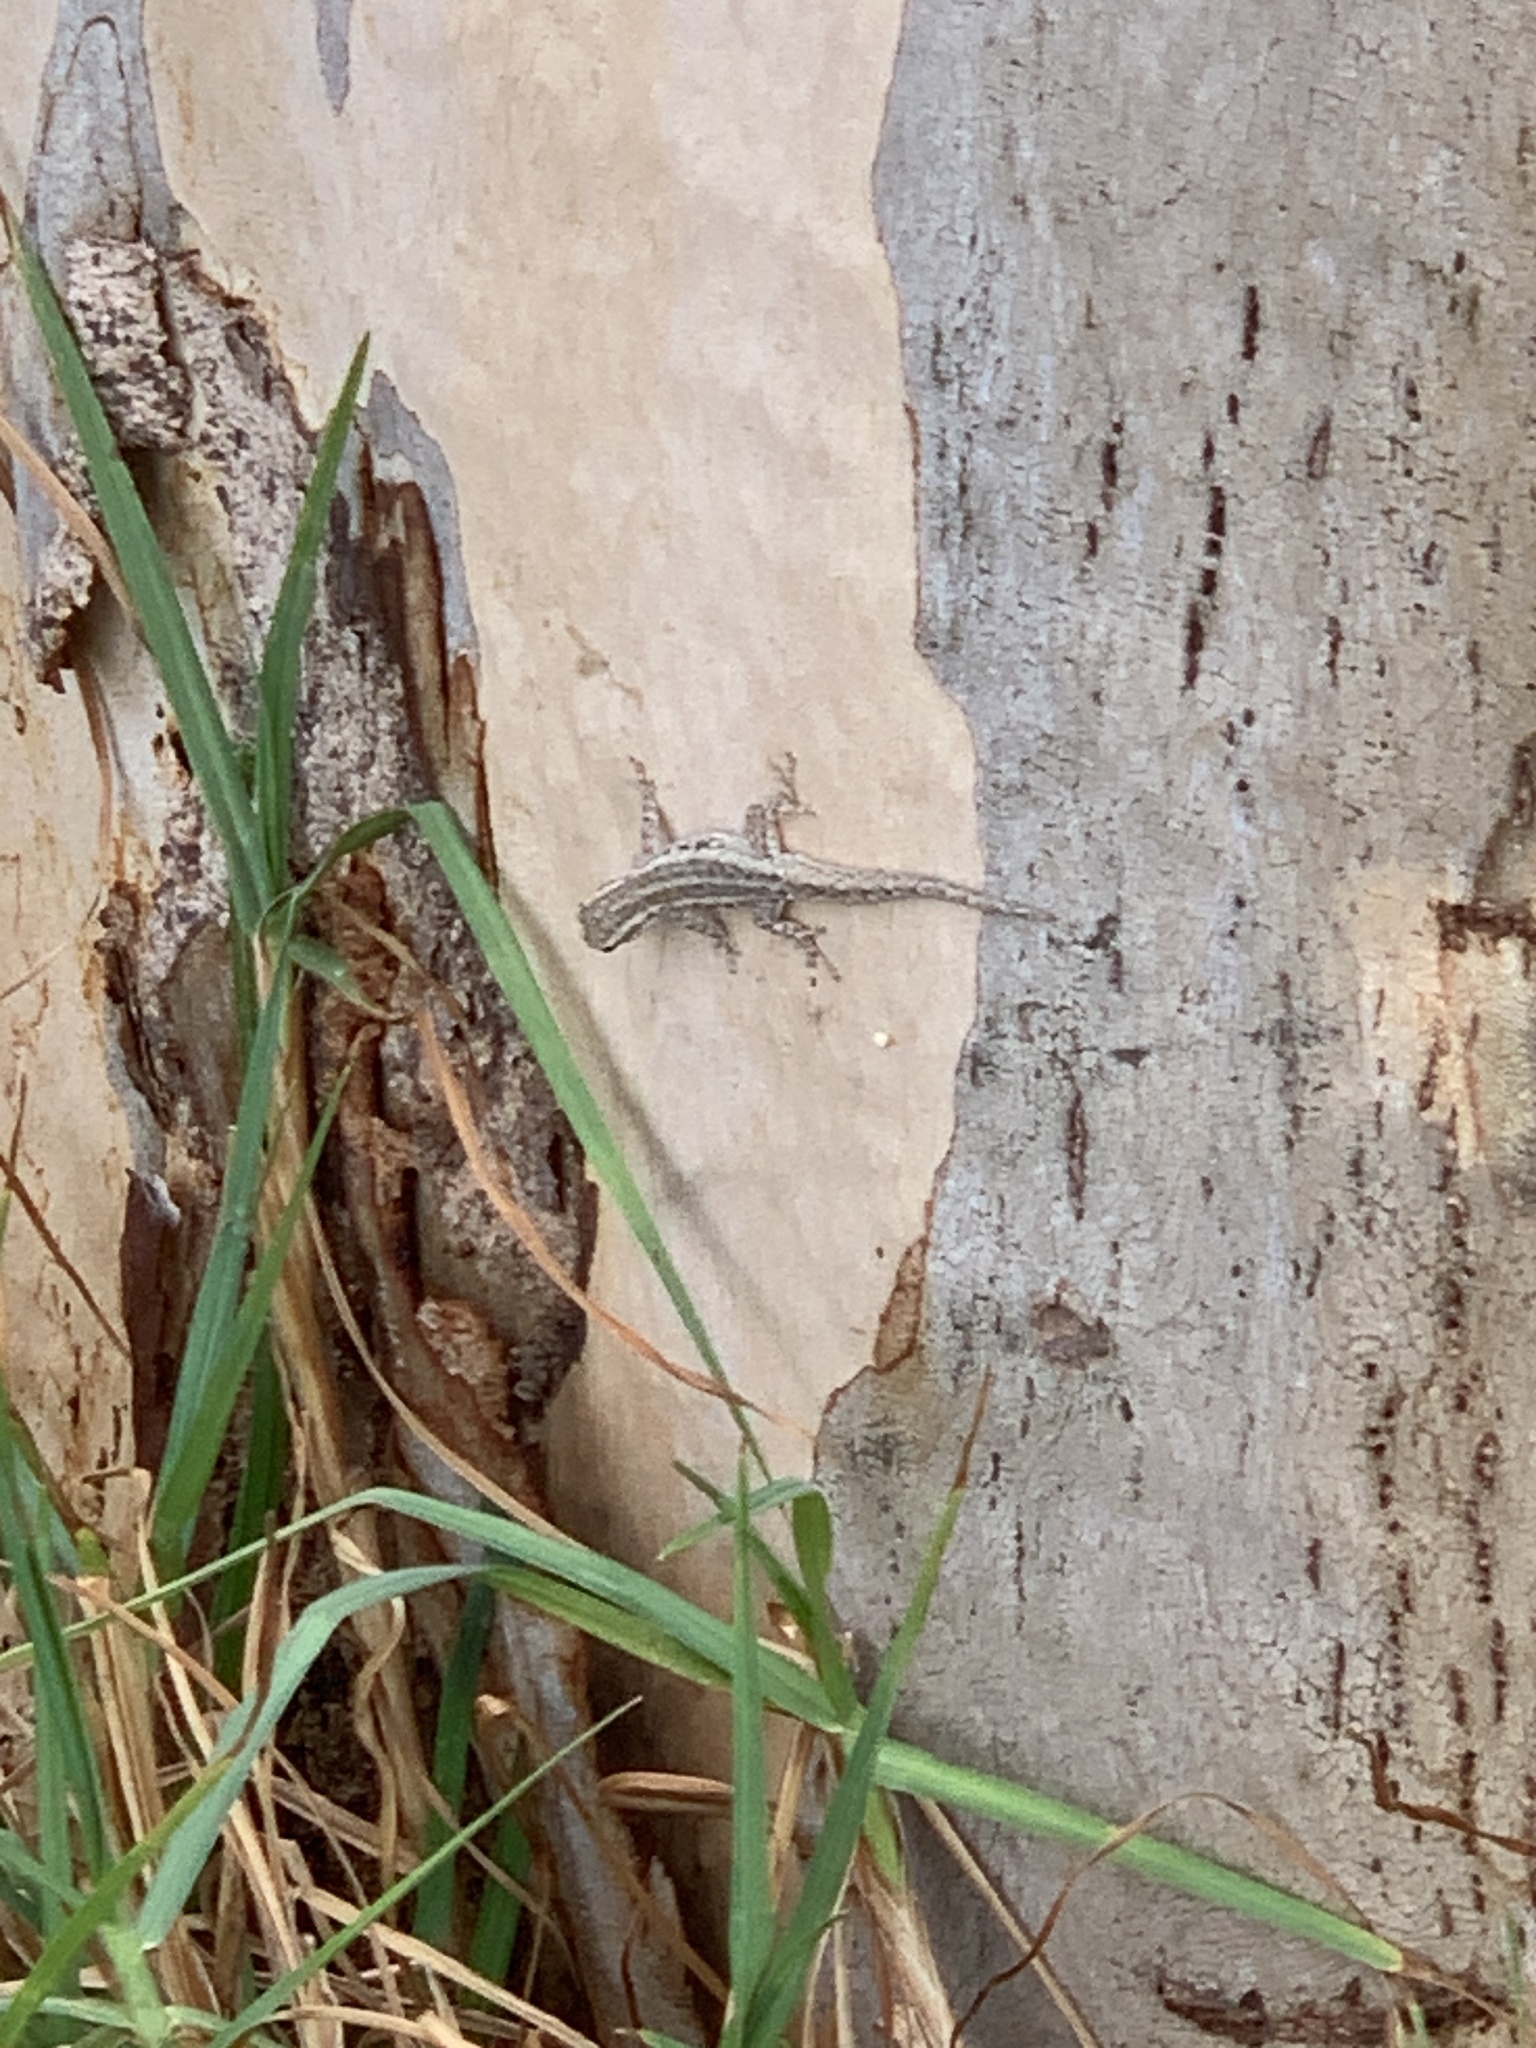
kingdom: Animalia
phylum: Chordata
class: Squamata
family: Gekkonidae
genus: Lygodactylus
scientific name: Lygodactylus capensis
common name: Cape dwarf gecko
